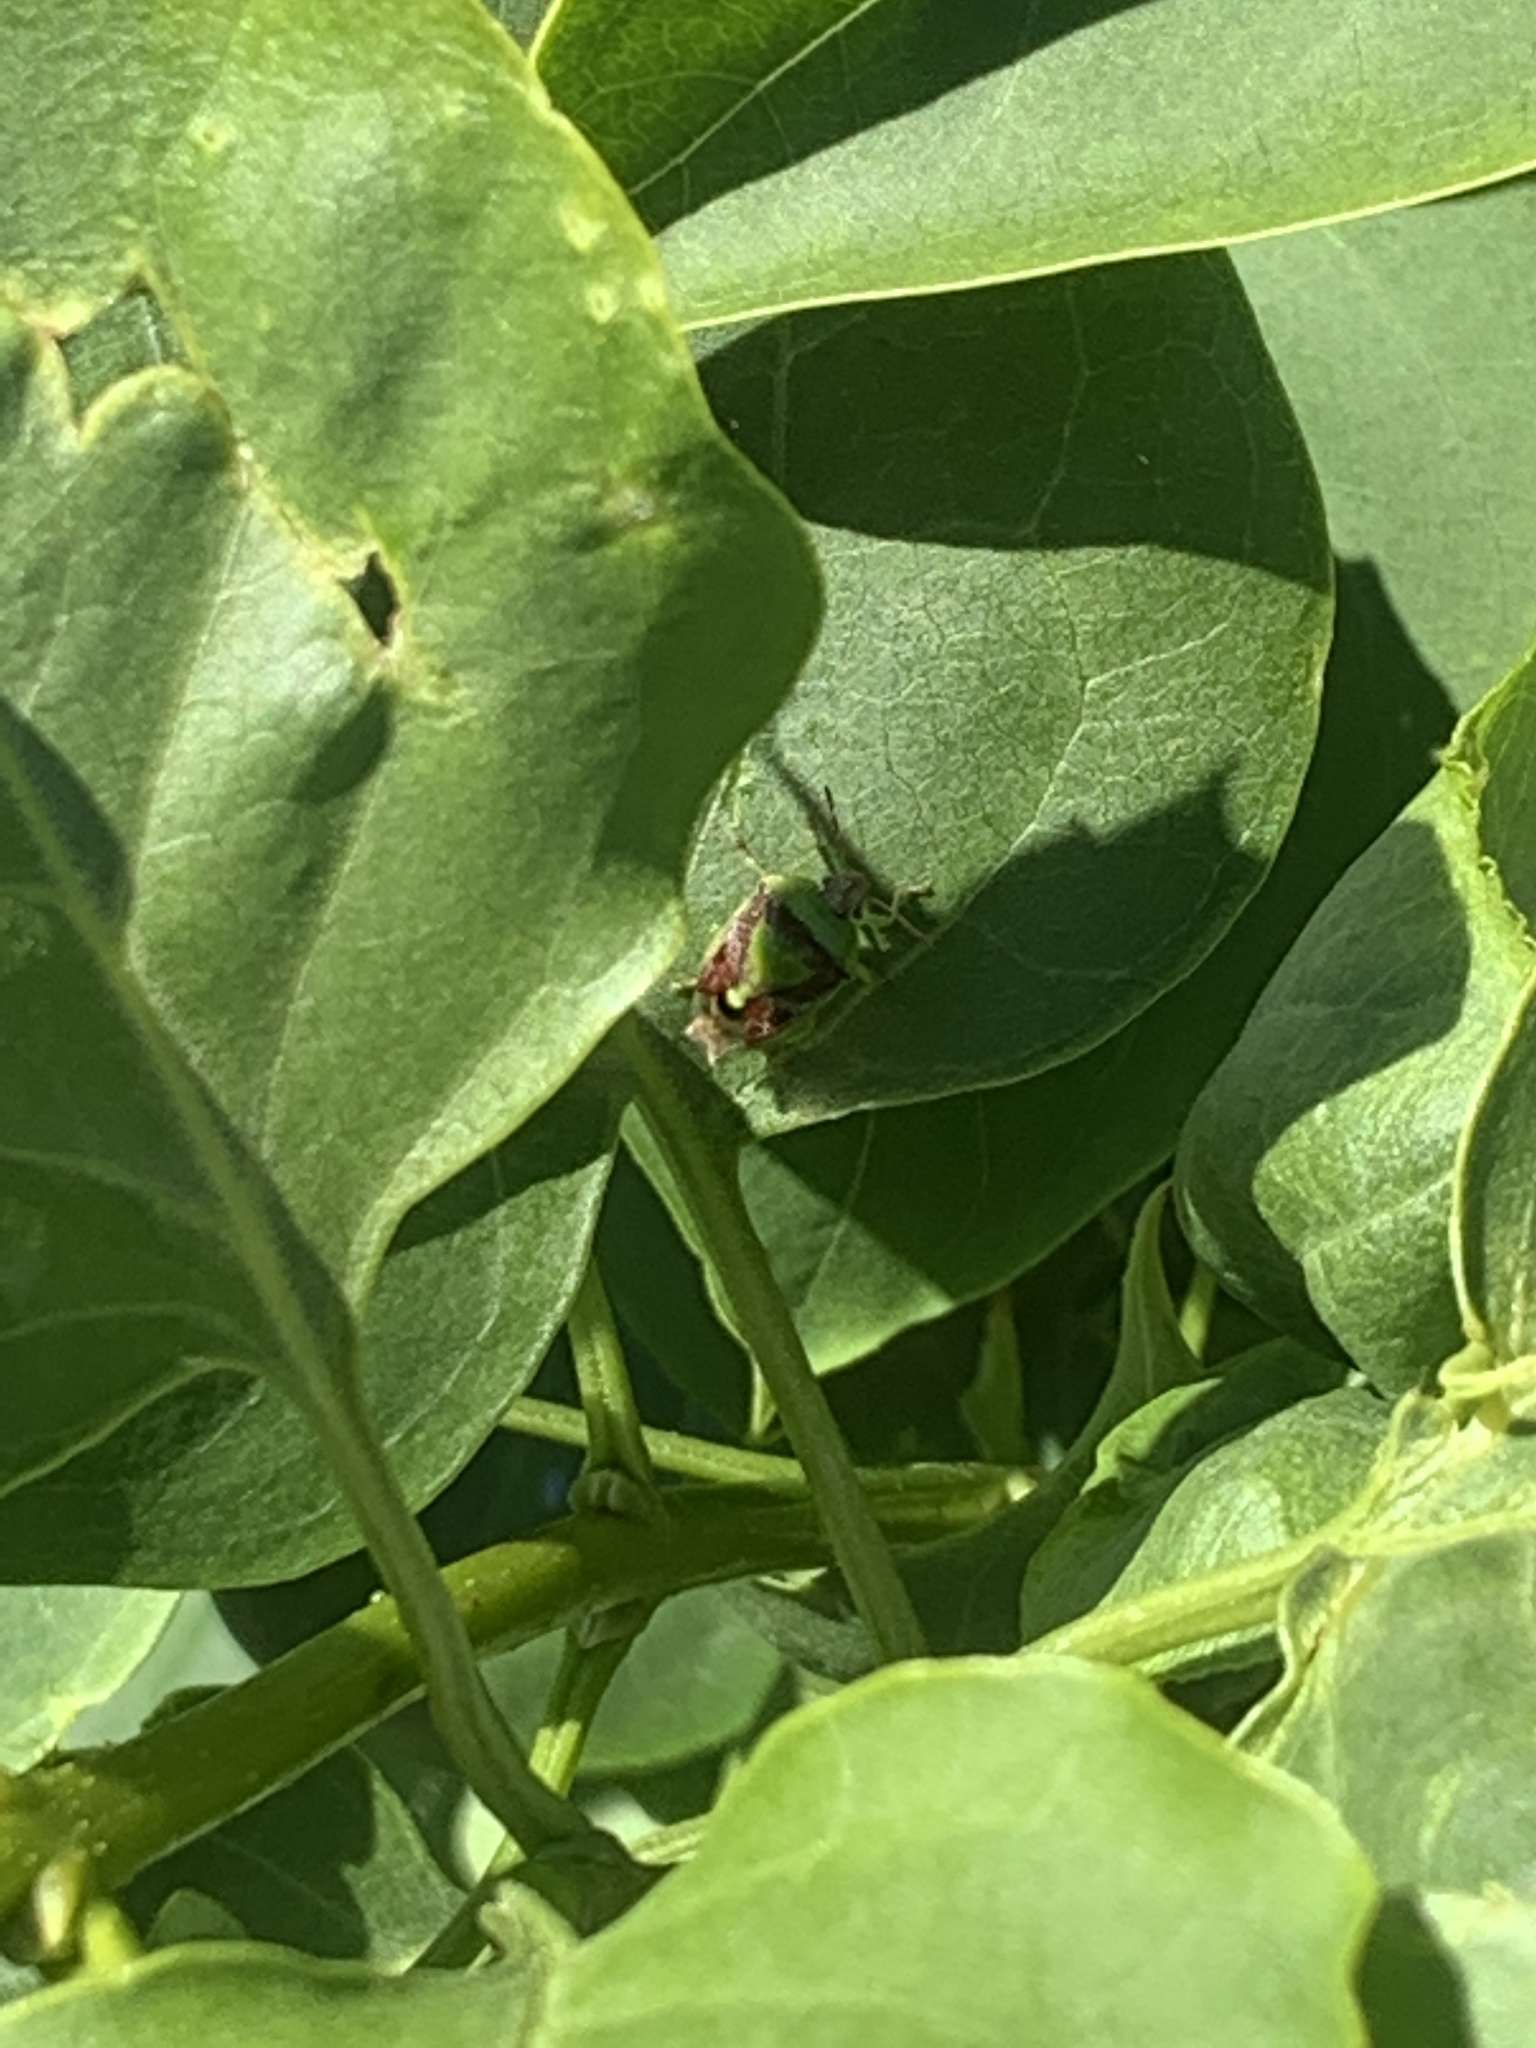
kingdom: Animalia
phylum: Arthropoda
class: Insecta
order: Hemiptera
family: Pentatomidae
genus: Banasa
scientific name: Banasa dimidiata
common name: Green burgundy stink bug
